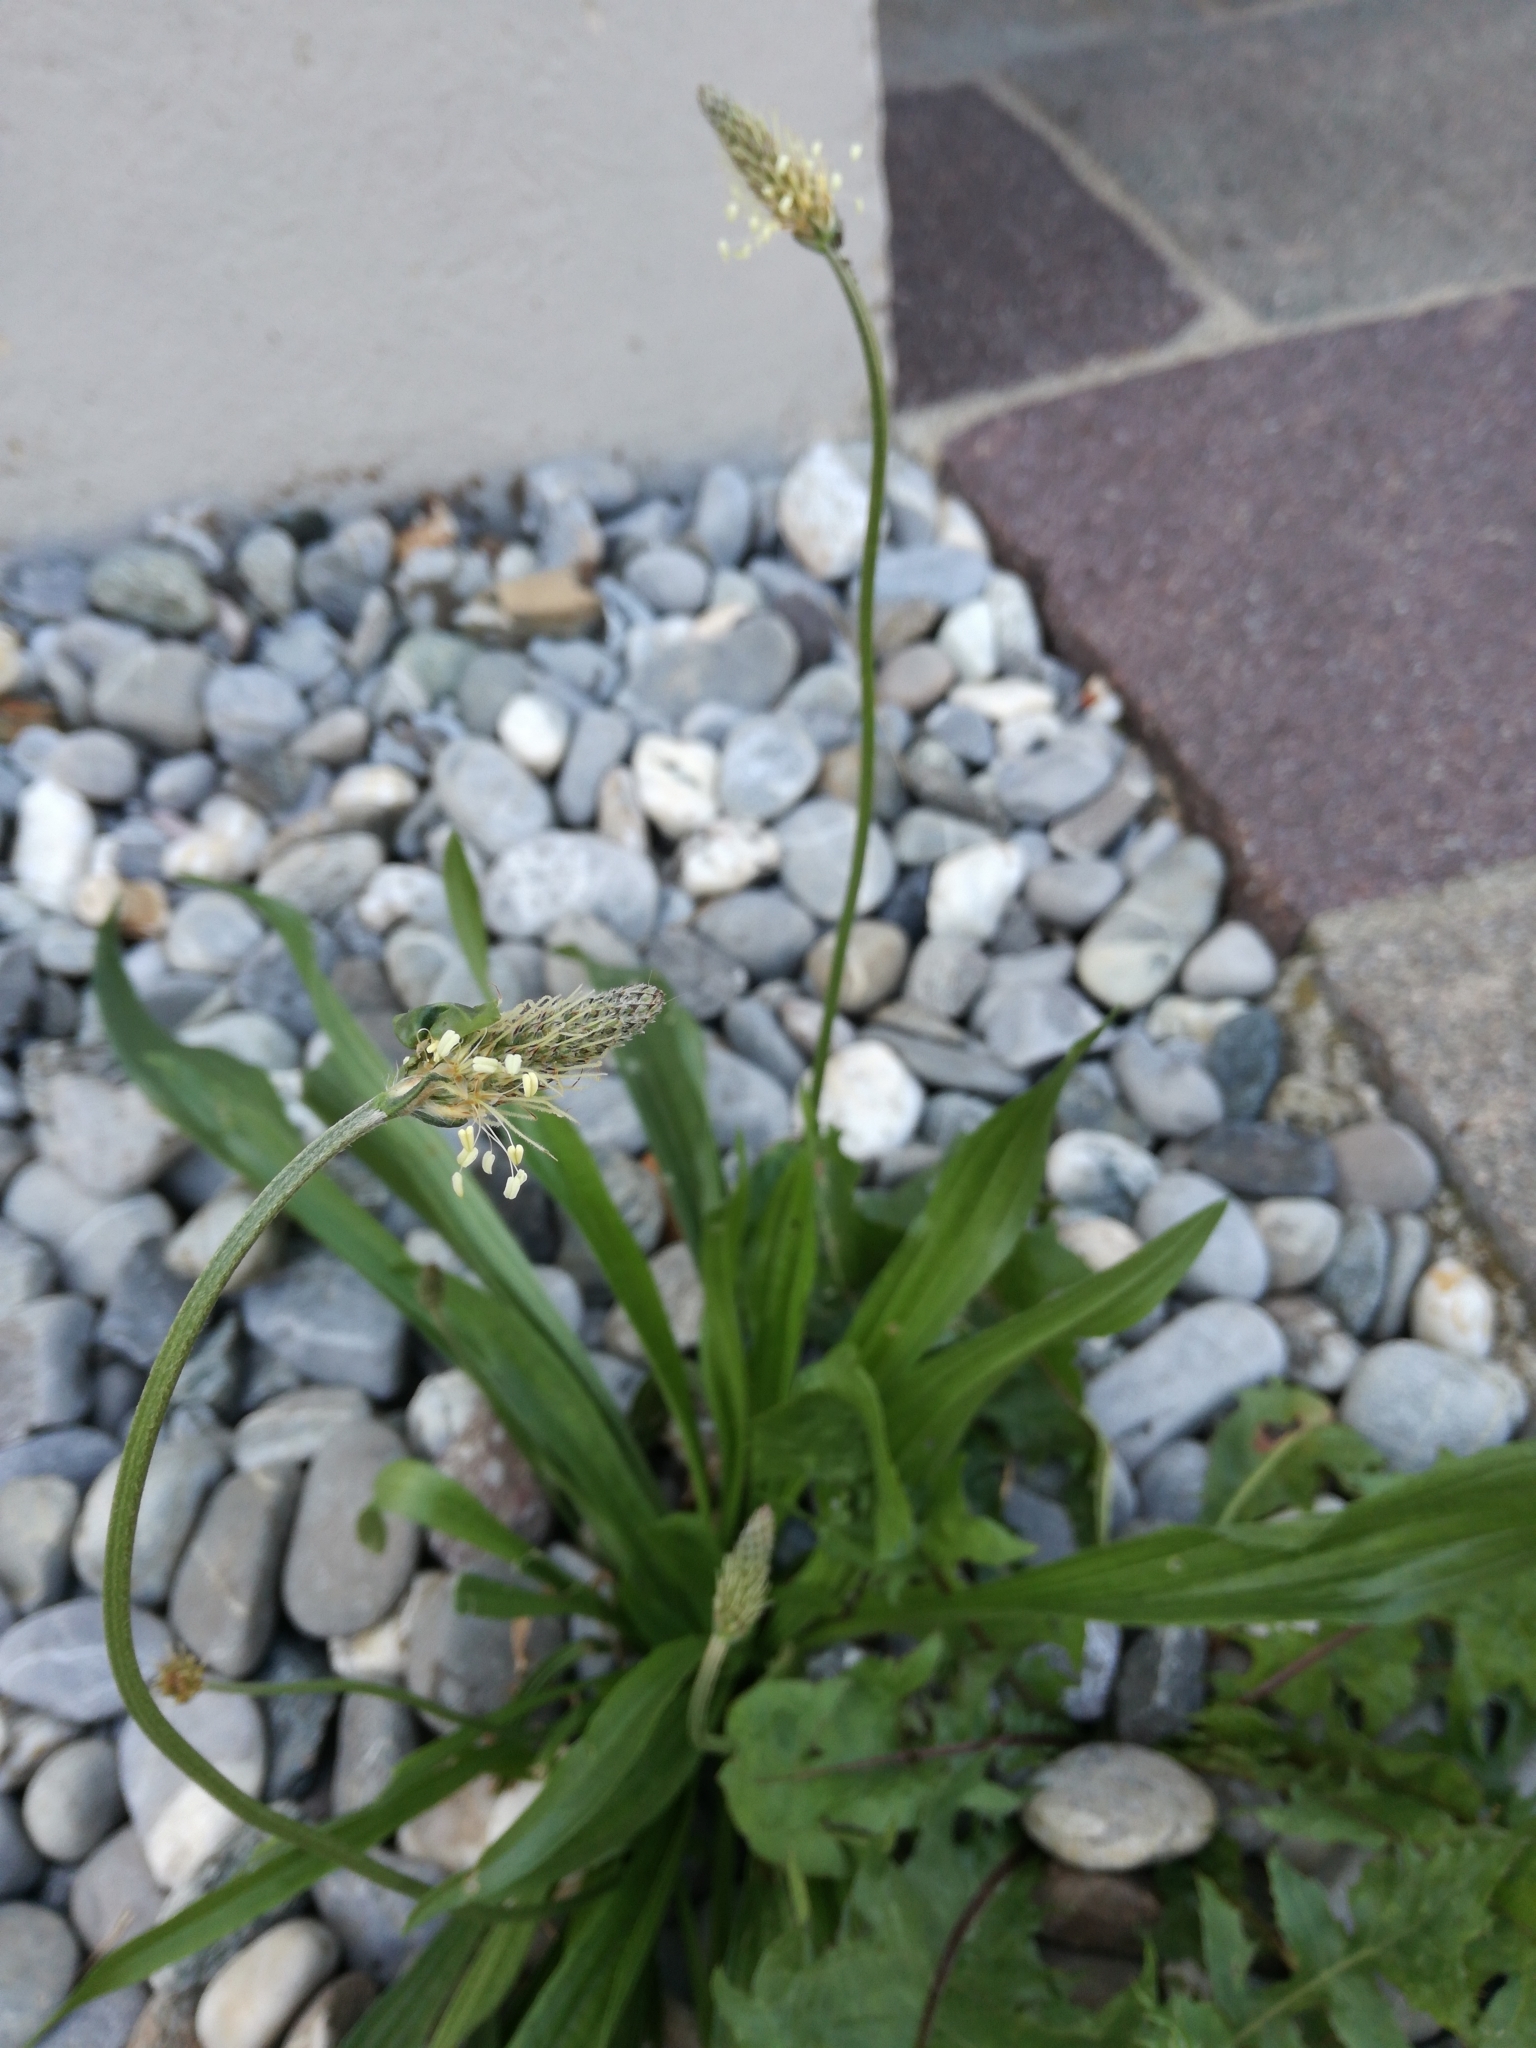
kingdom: Plantae
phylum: Tracheophyta
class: Magnoliopsida
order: Lamiales
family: Plantaginaceae
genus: Plantago
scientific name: Plantago lanceolata
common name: Ribwort plantain
